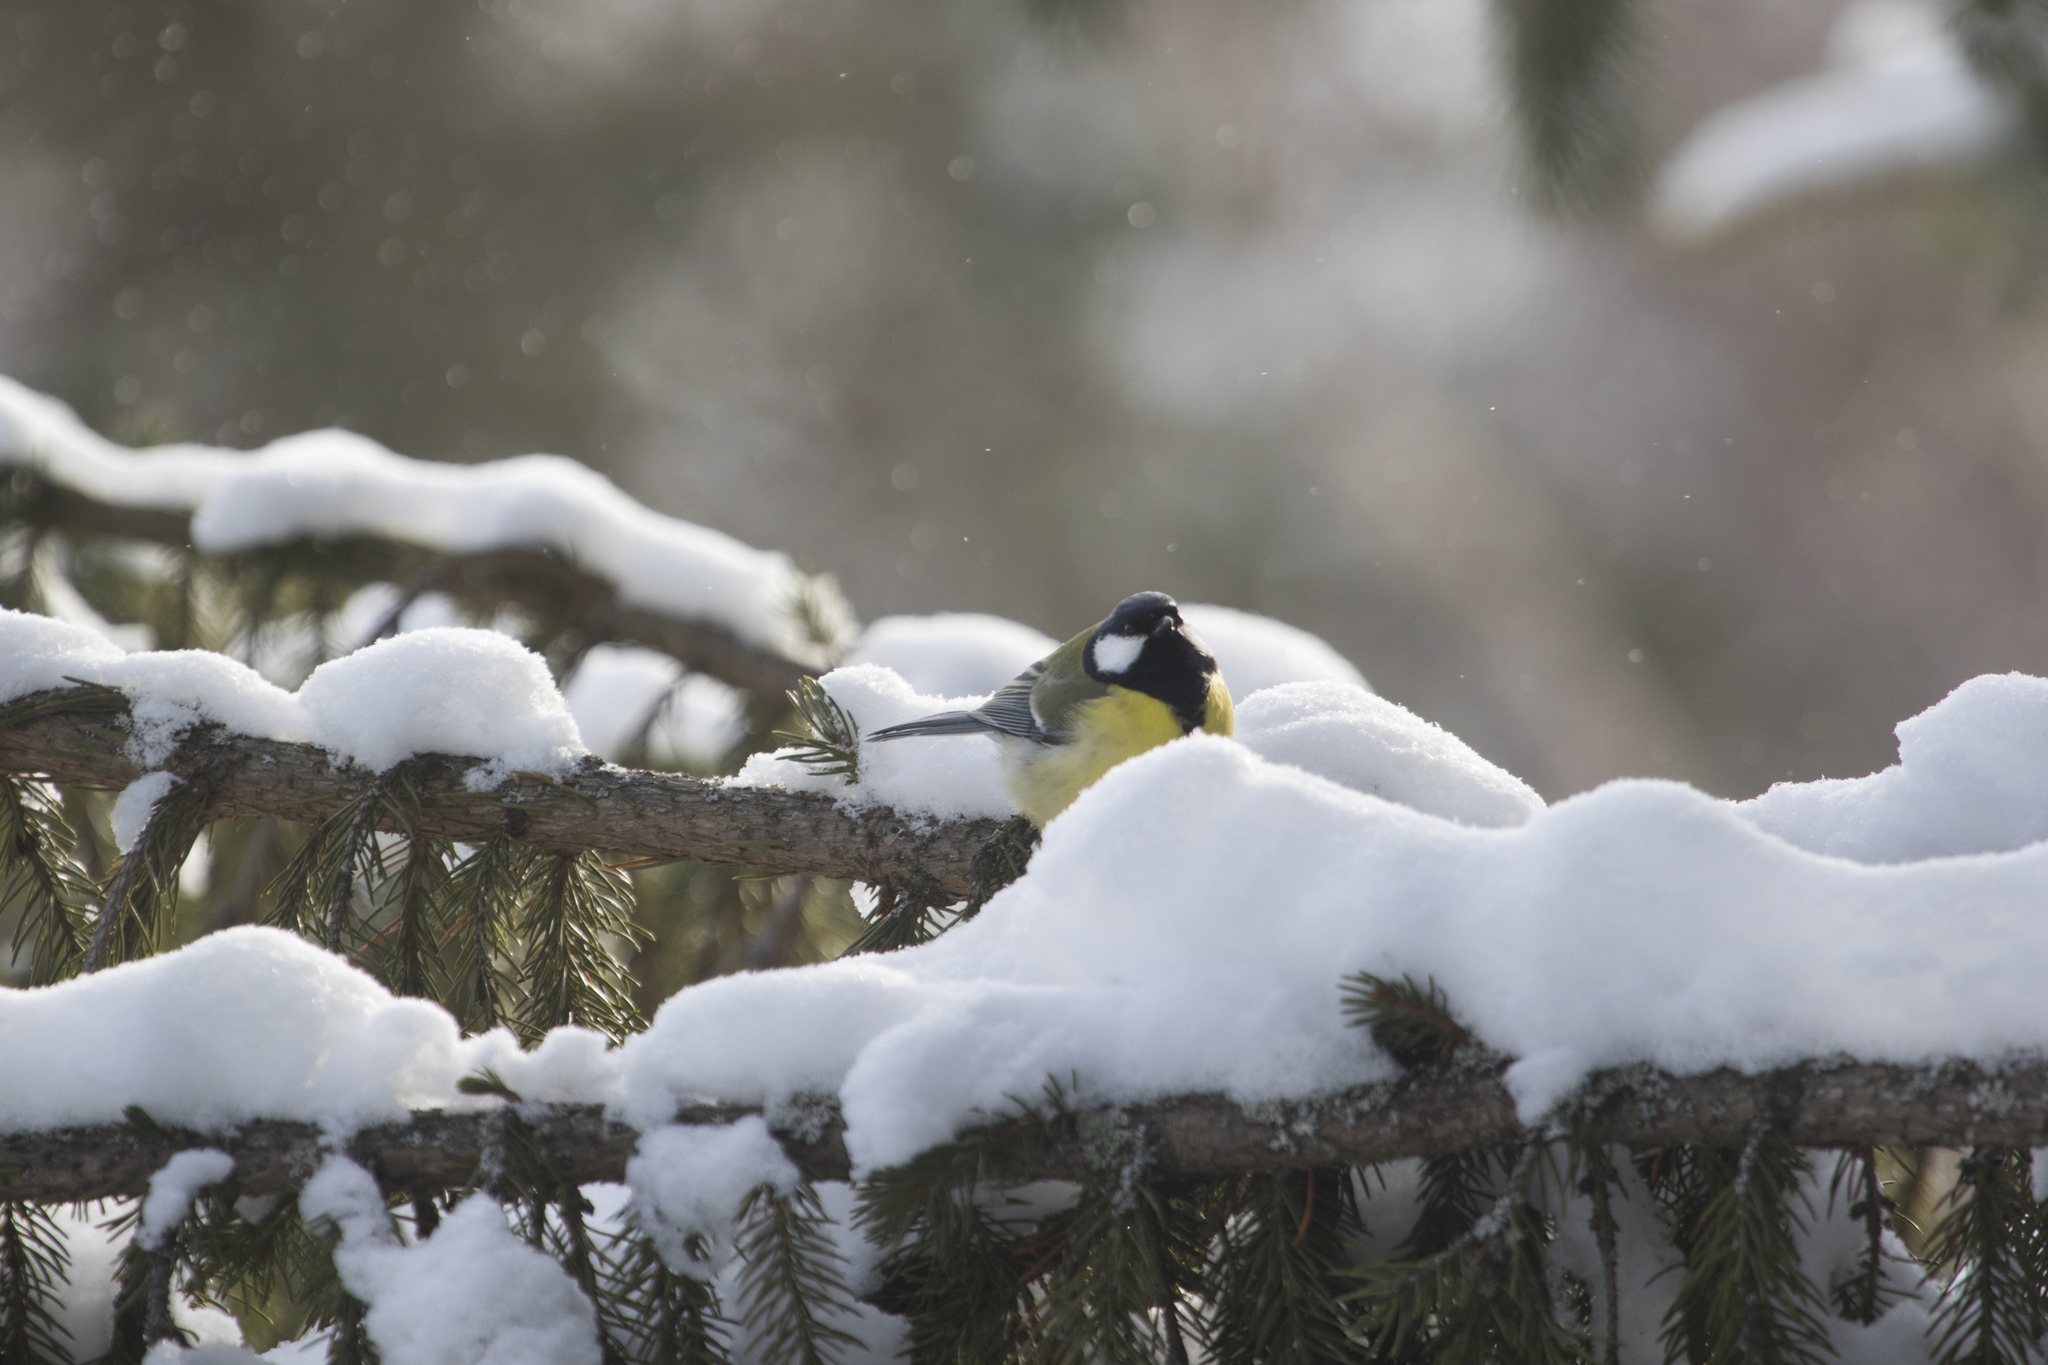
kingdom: Animalia
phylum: Chordata
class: Aves
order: Passeriformes
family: Paridae
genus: Parus
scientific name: Parus major
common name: Great tit
